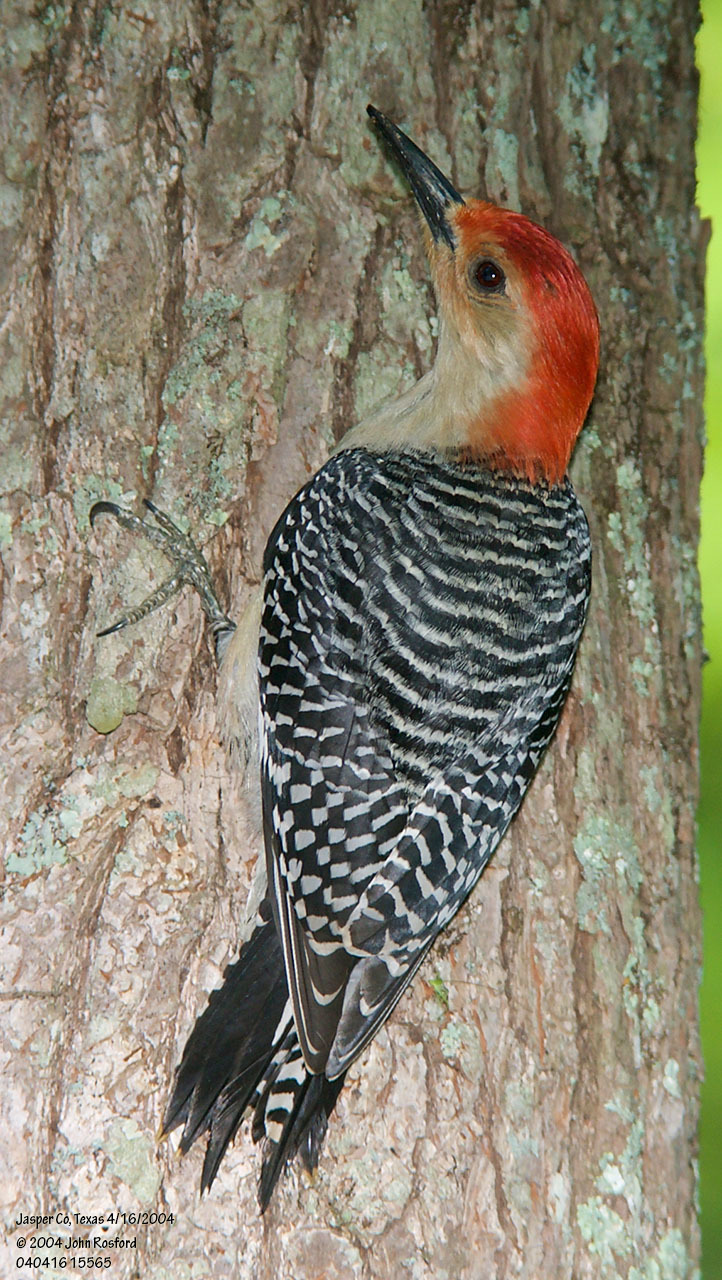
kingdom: Animalia
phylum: Chordata
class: Aves
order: Piciformes
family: Picidae
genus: Melanerpes
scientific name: Melanerpes carolinus
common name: Red-bellied woodpecker
